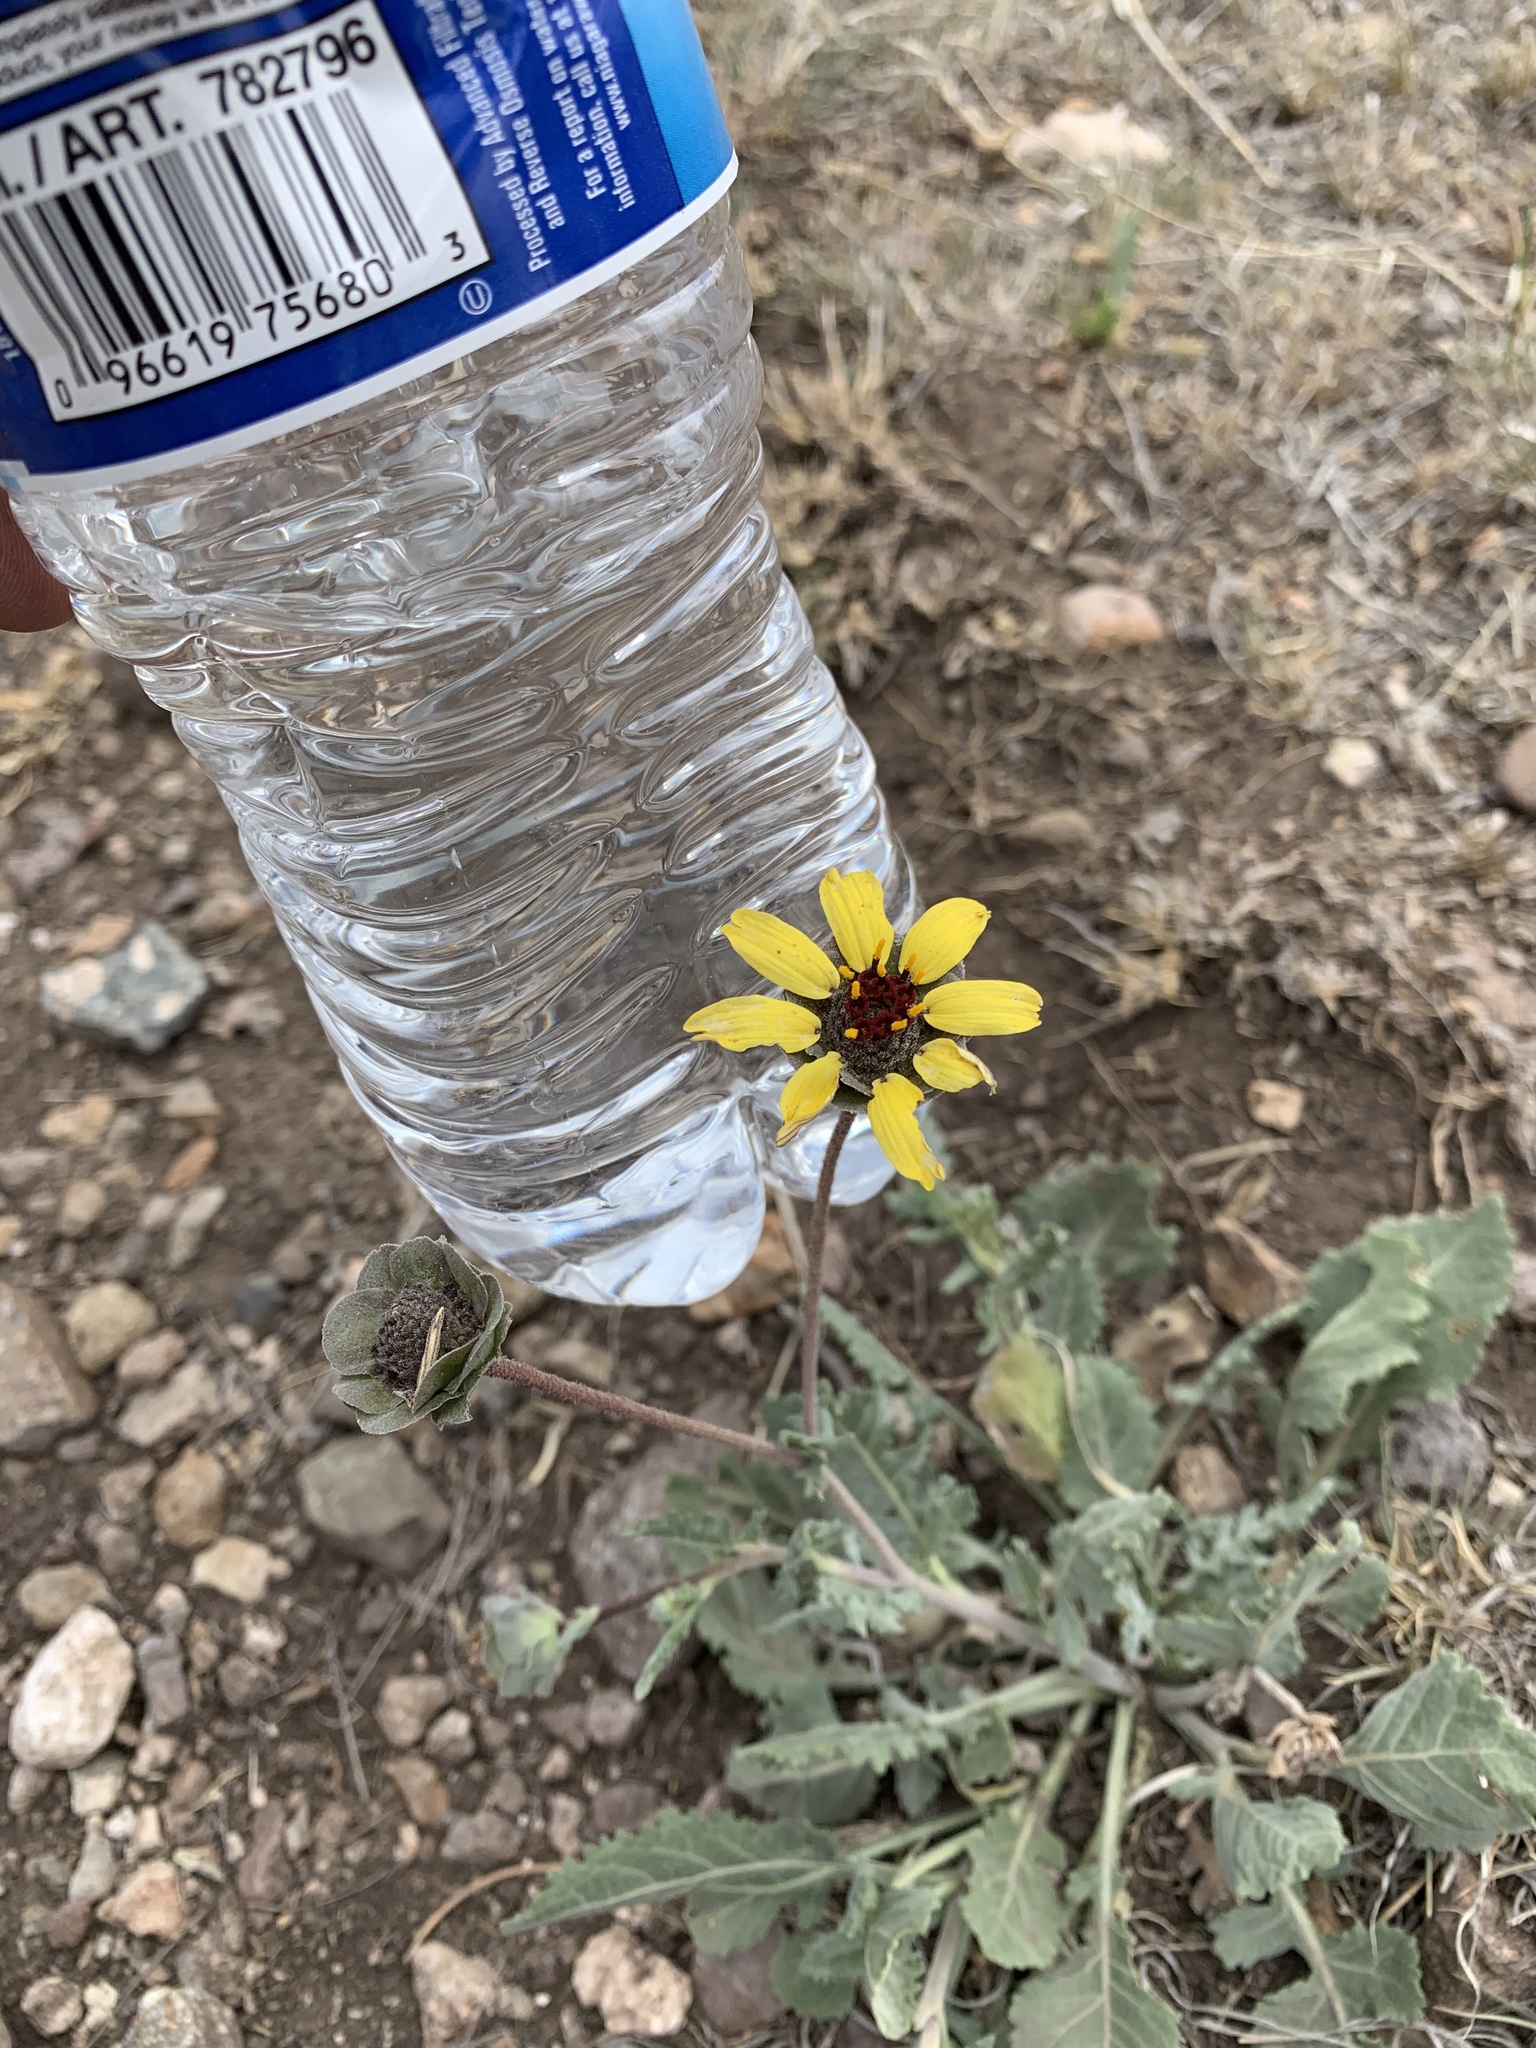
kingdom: Plantae
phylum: Tracheophyta
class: Magnoliopsida
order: Asterales
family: Asteraceae
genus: Berlandiera
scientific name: Berlandiera lyrata
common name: Chocolate-flower
